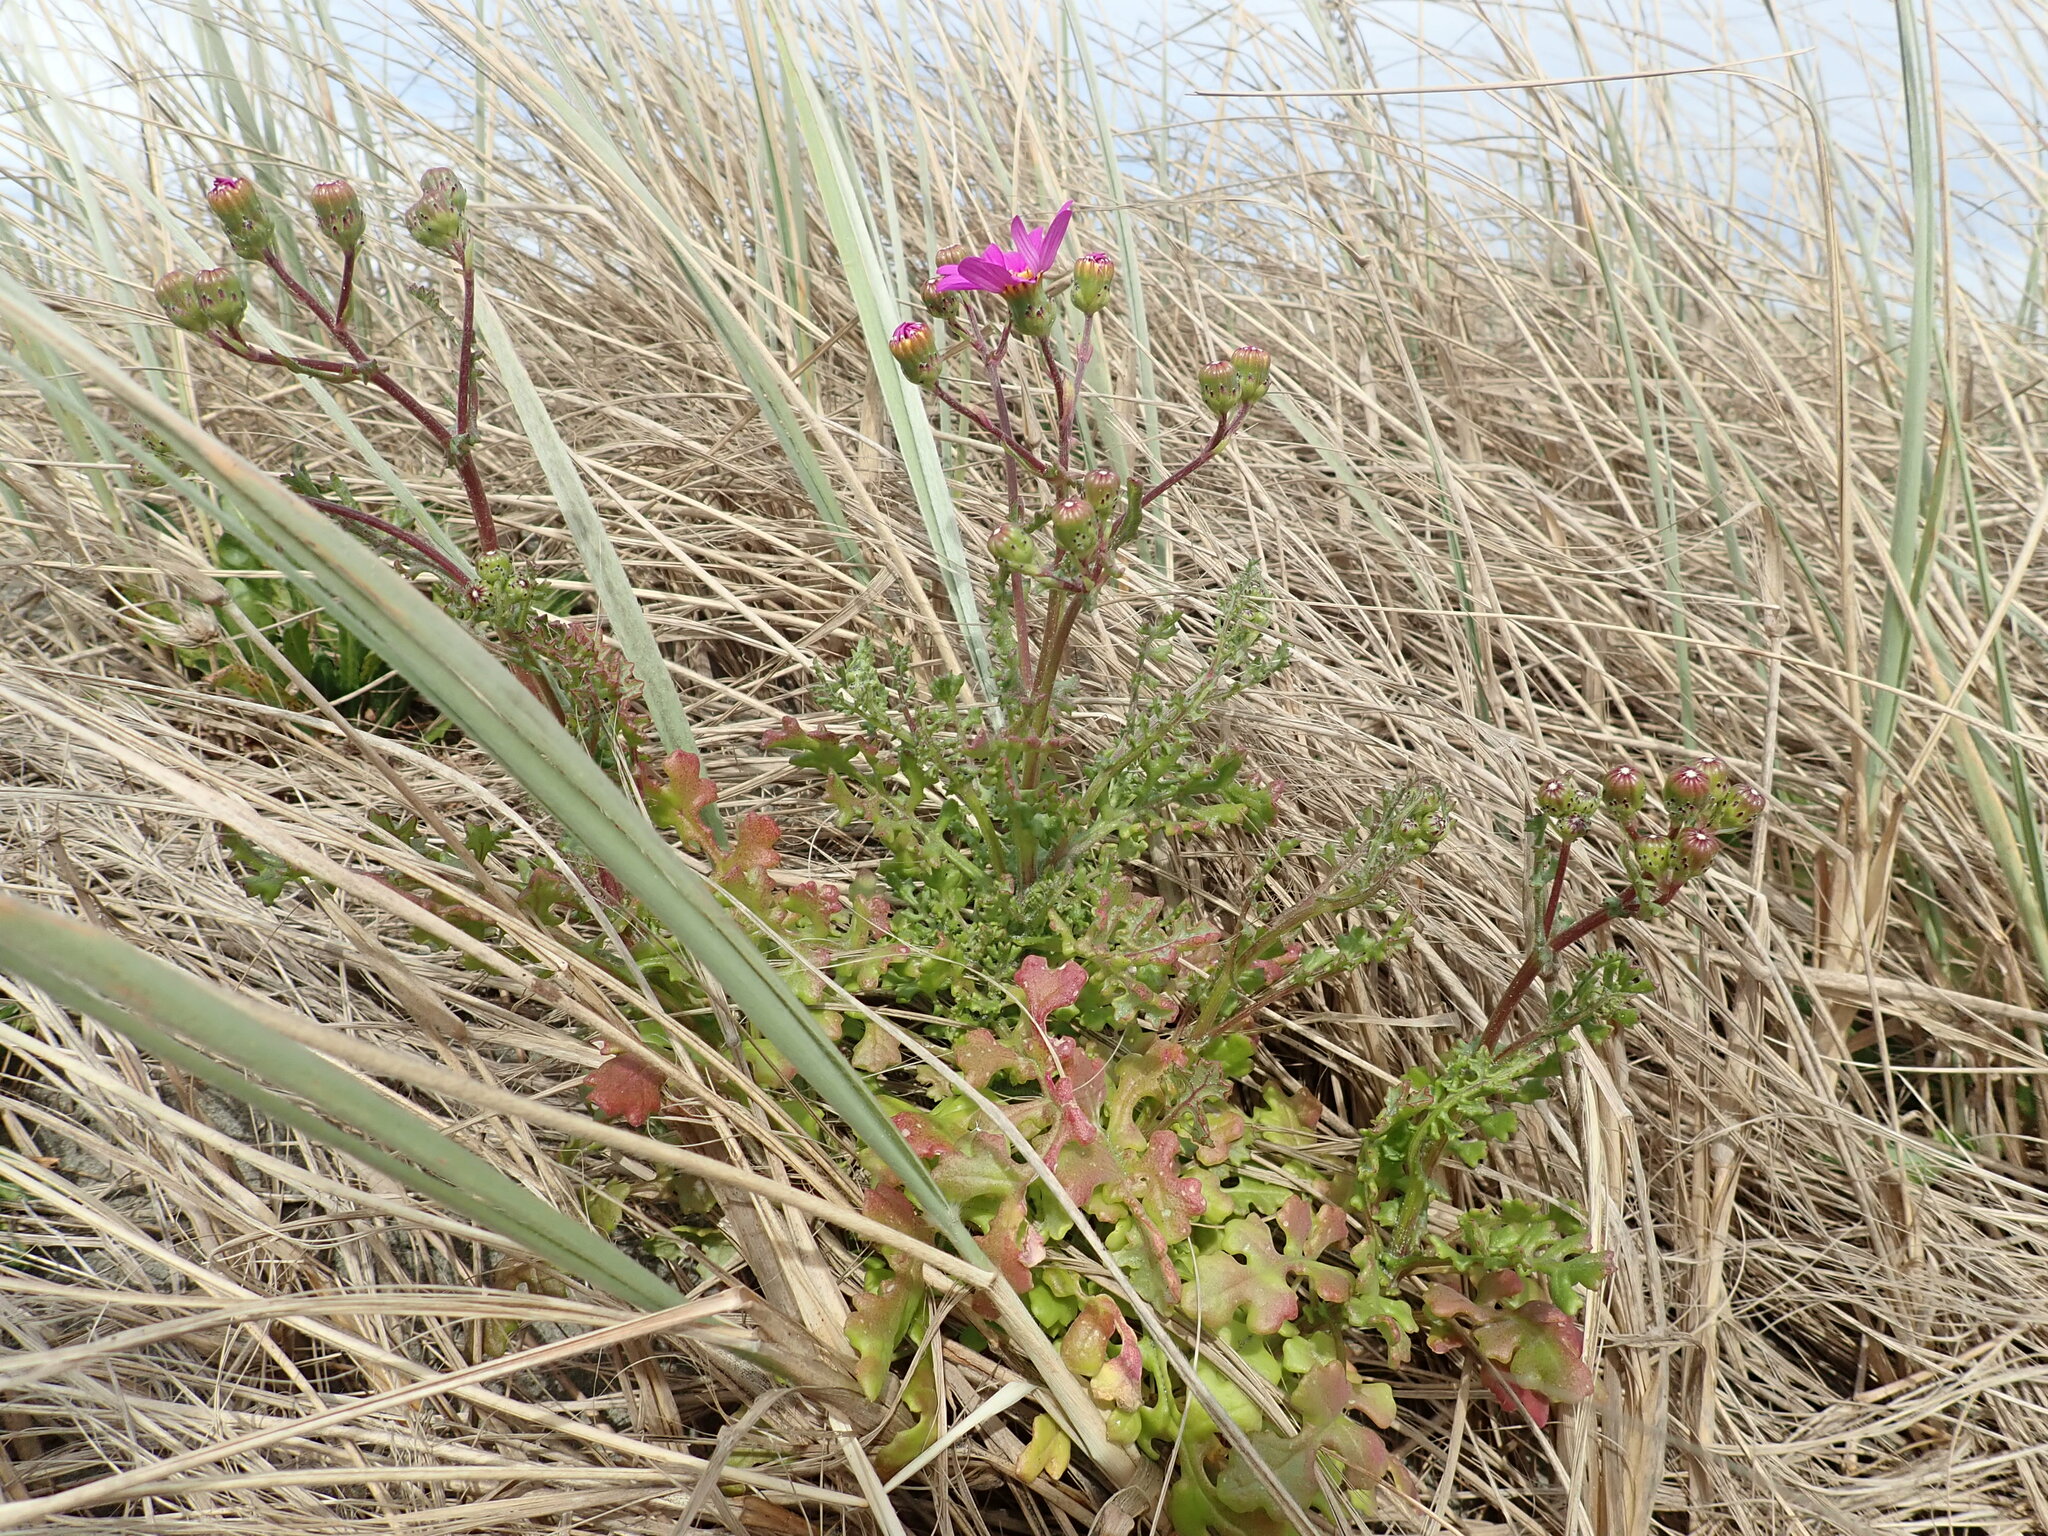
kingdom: Plantae
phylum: Tracheophyta
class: Magnoliopsida
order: Asterales
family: Asteraceae
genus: Senecio
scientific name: Senecio elegans
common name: Purple groundsel
